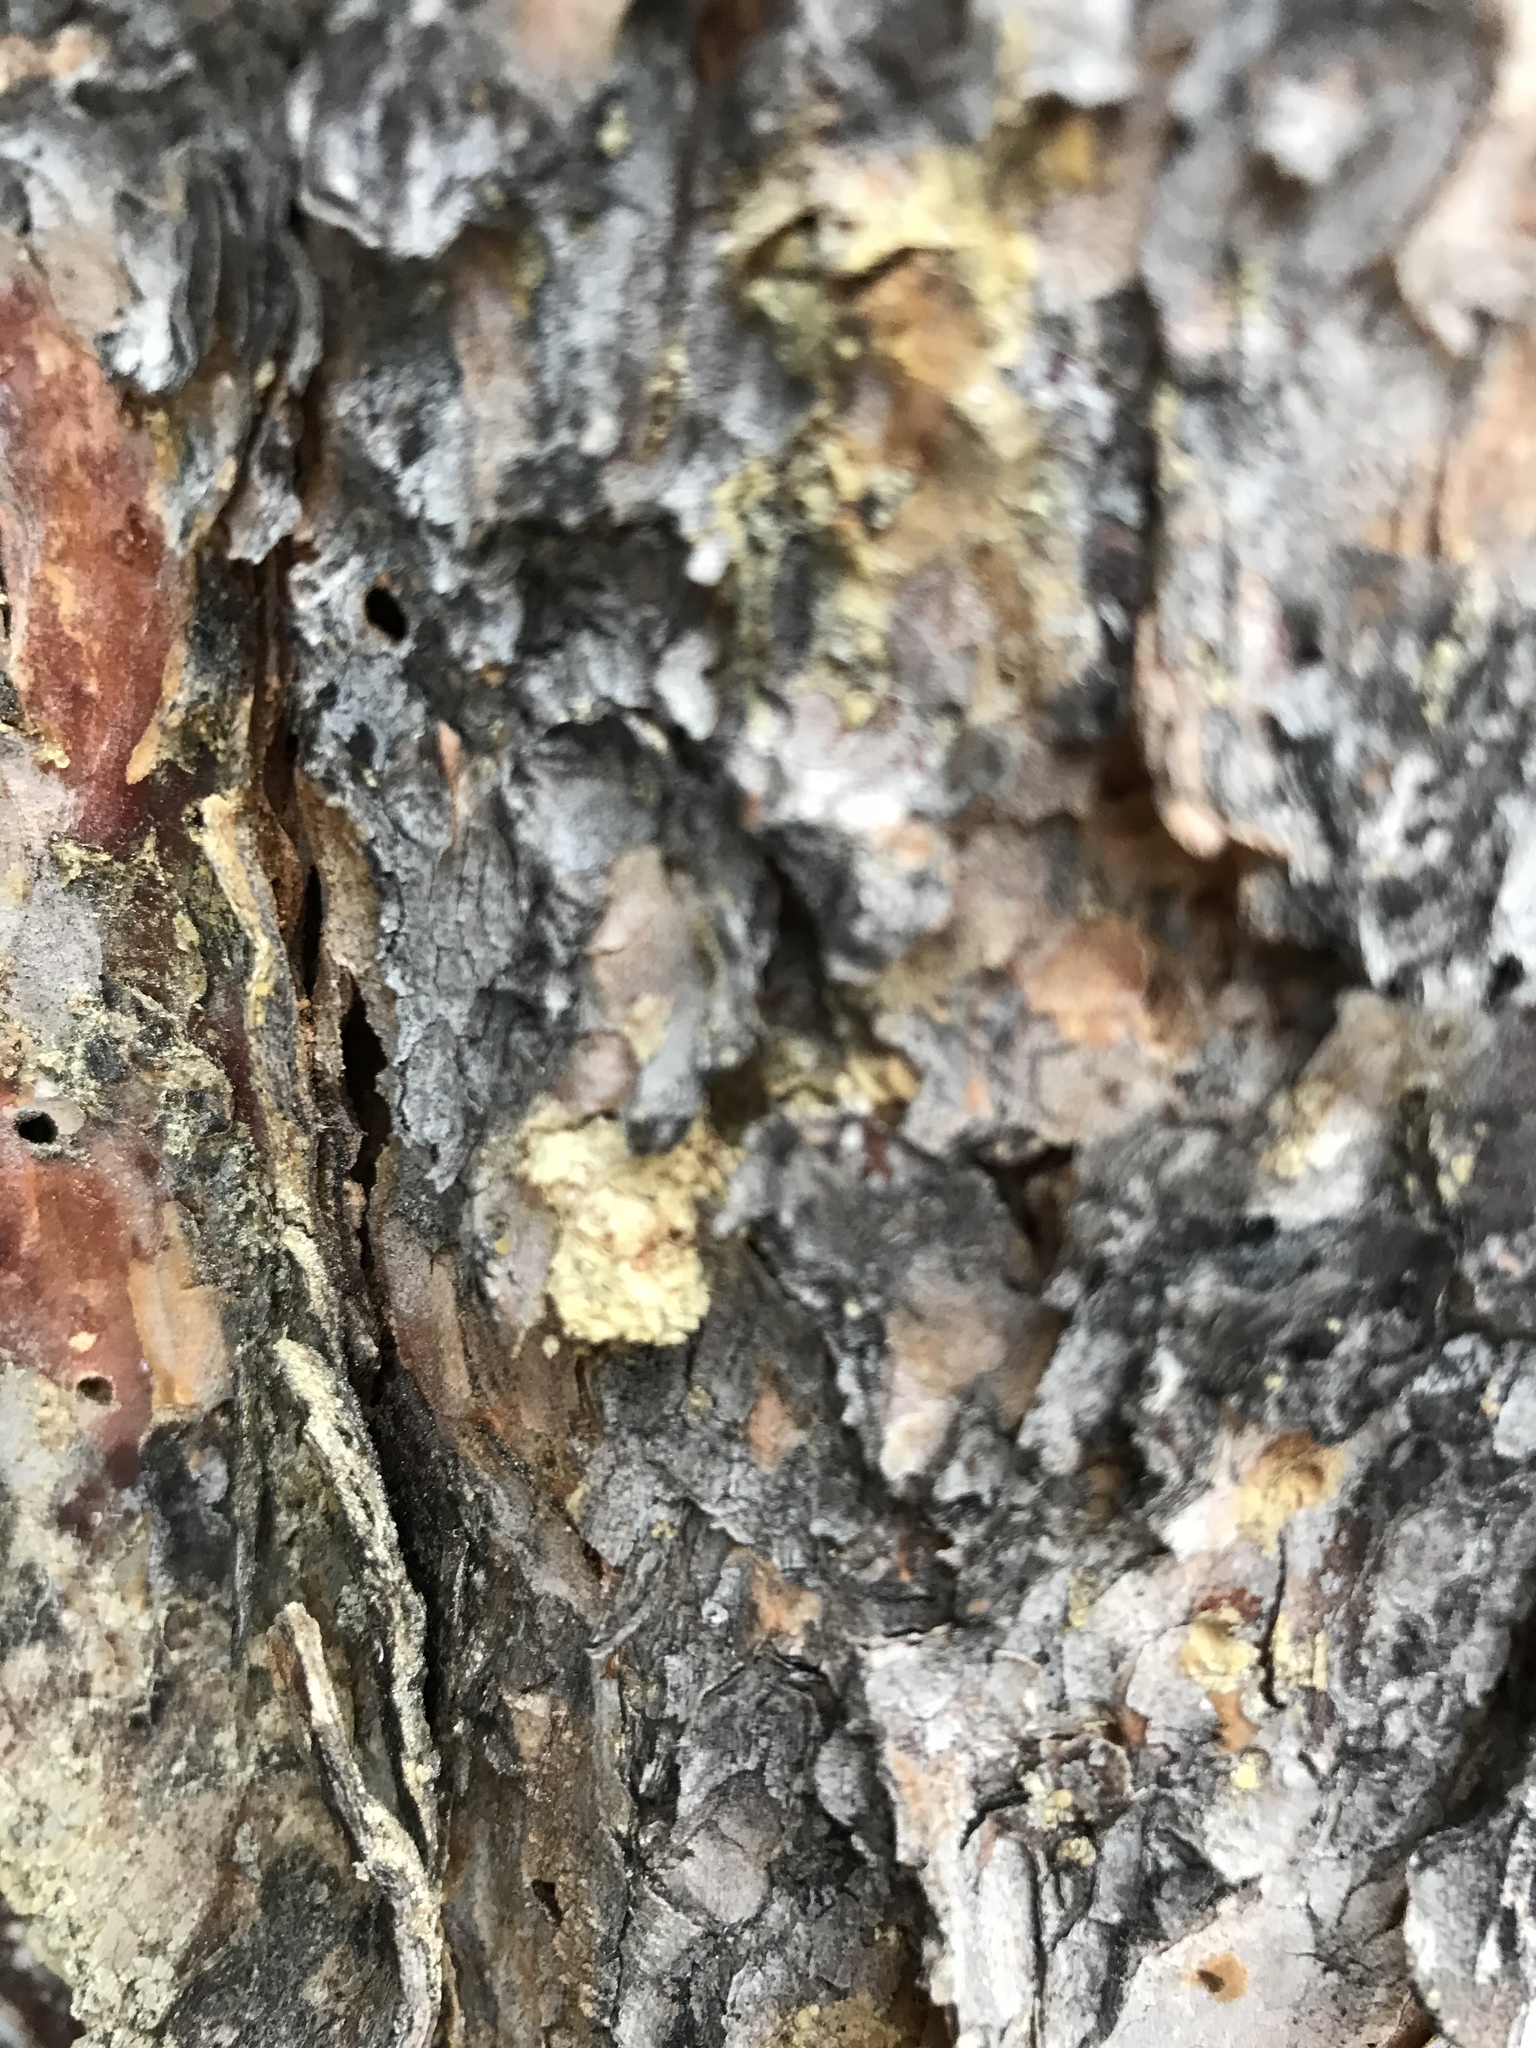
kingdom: Animalia
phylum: Arthropoda
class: Insecta
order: Coleoptera
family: Curculionidae
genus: Dendroctonus
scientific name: Dendroctonus ponderosae
